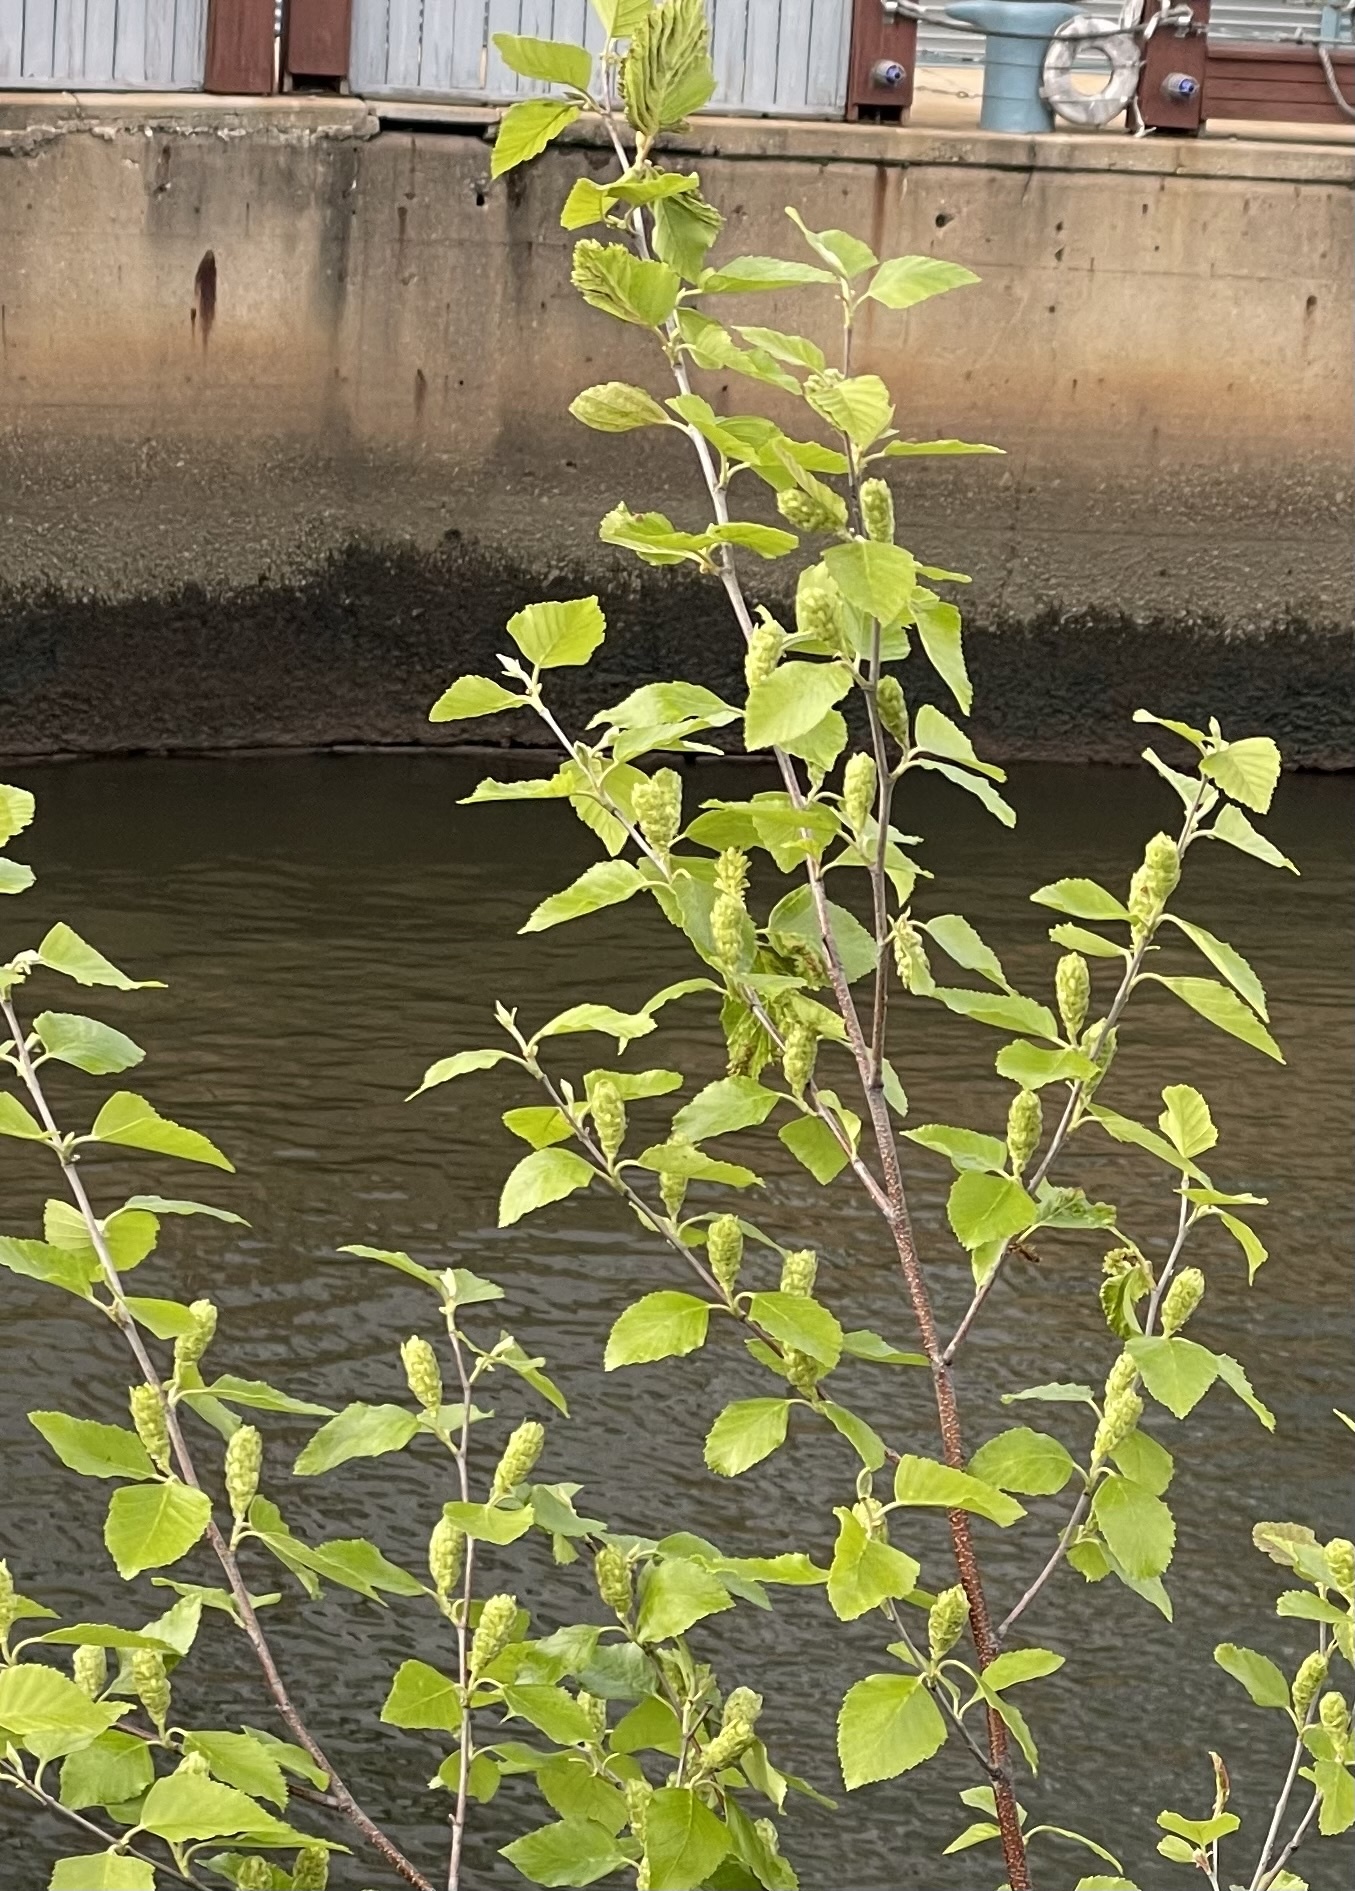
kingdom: Plantae
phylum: Tracheophyta
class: Magnoliopsida
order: Fagales
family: Betulaceae
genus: Betula
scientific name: Betula nigra
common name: Black birch
